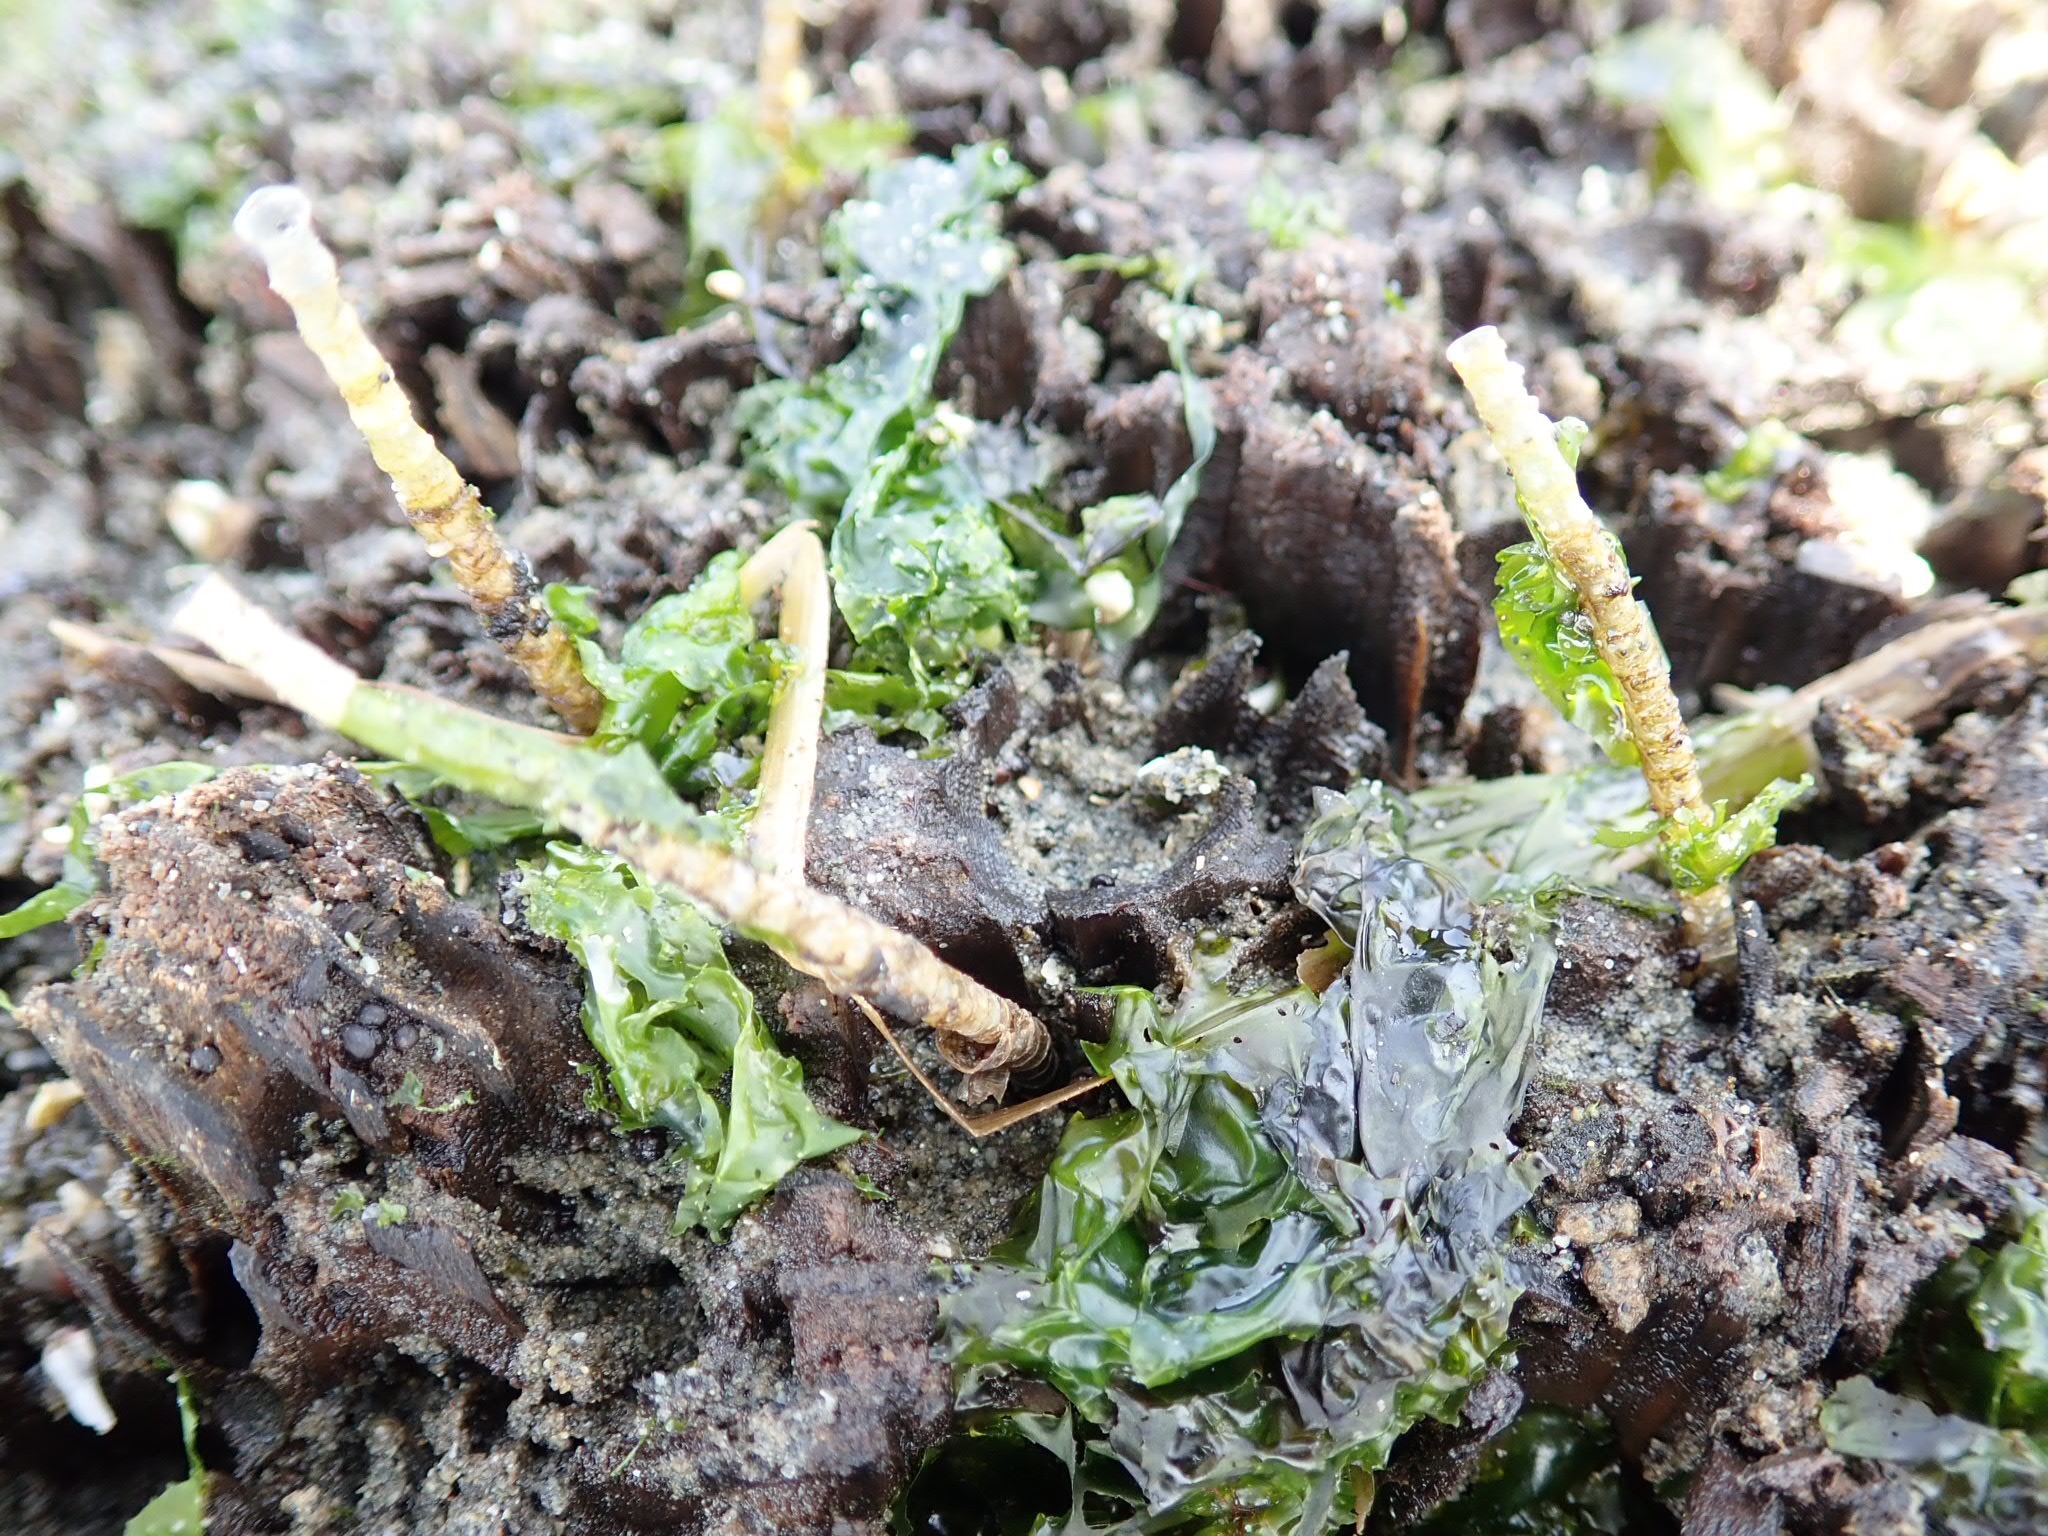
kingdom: Animalia
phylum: Annelida
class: Polychaeta
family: Chaetopteridae
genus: Spiochaetopterus
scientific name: Spiochaetopterus costarum
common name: Glassy tubeworm
